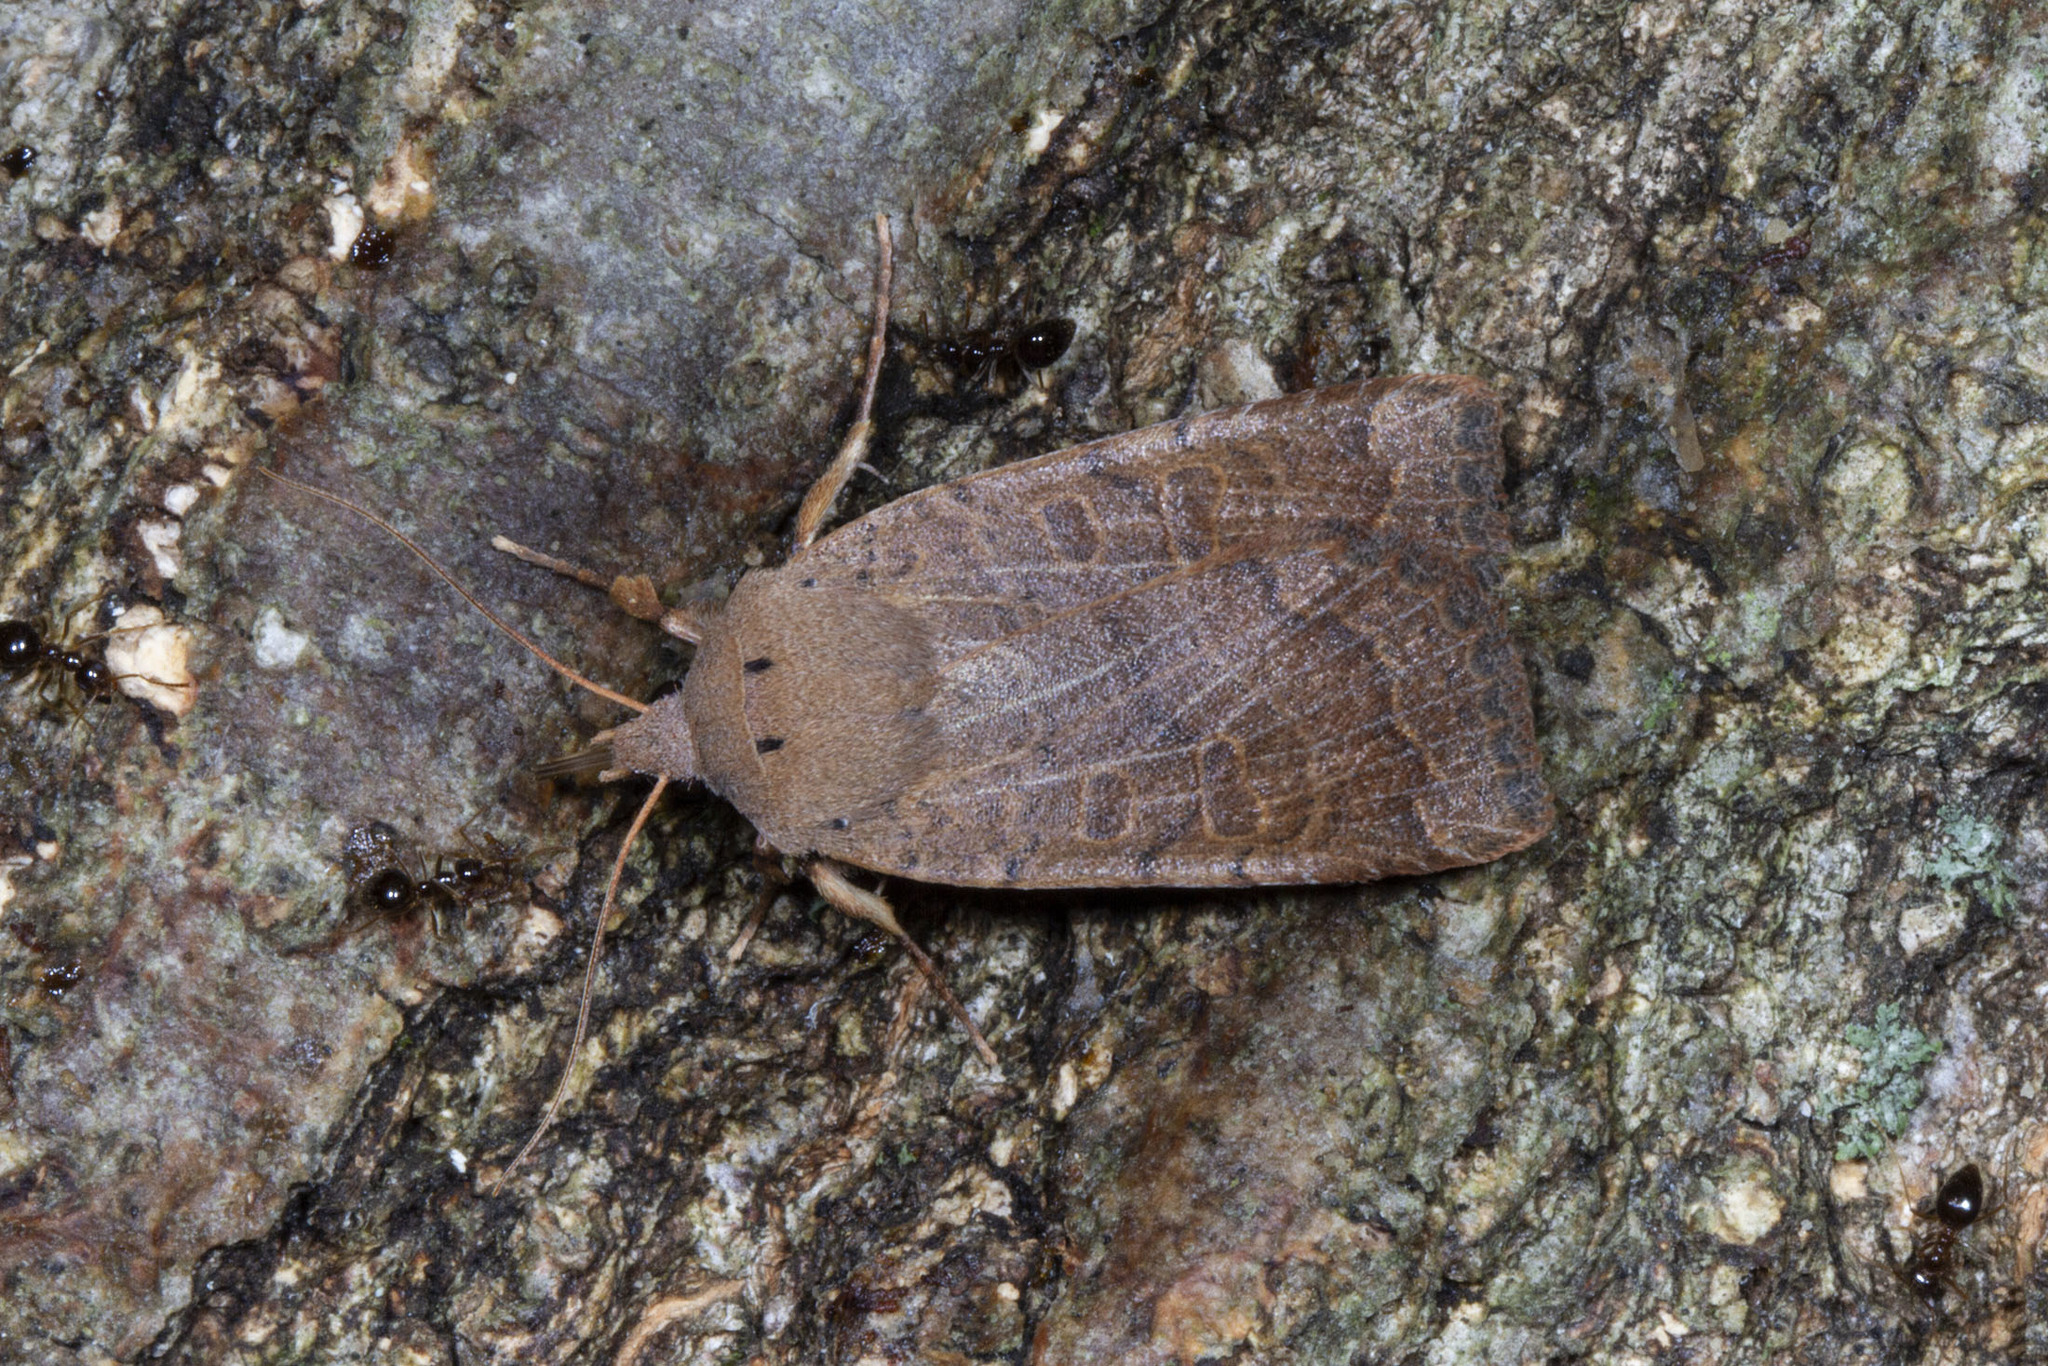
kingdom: Animalia
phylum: Arthropoda
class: Insecta
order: Lepidoptera
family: Noctuidae
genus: Sericaglaea
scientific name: Sericaglaea signata
